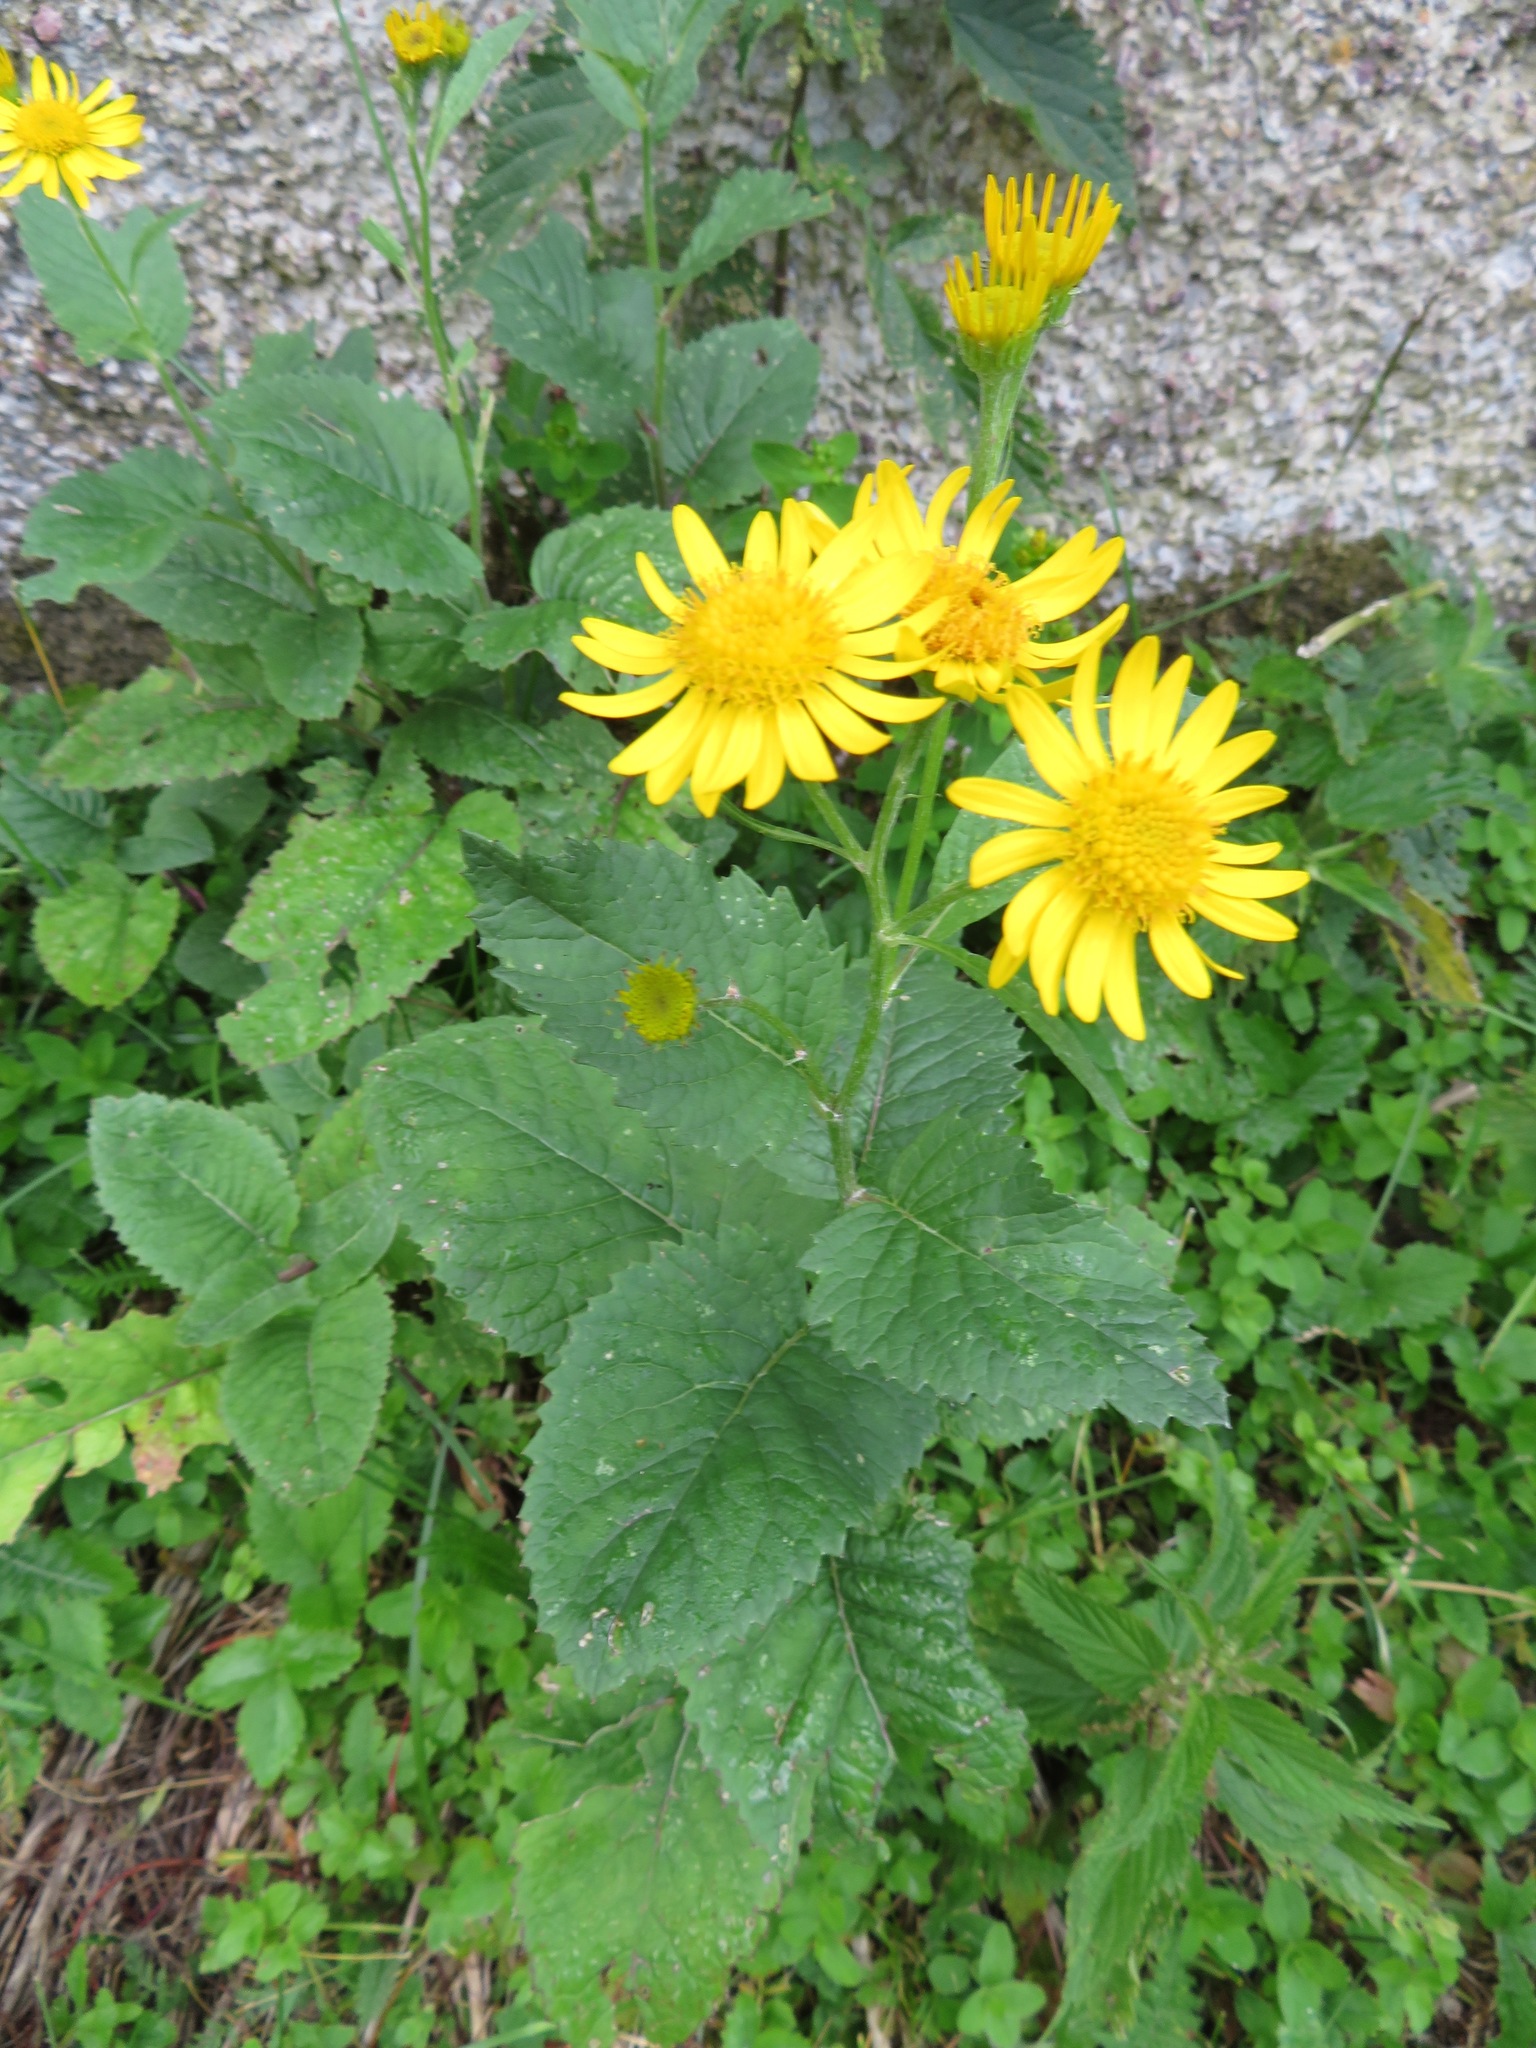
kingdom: Plantae
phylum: Tracheophyta
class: Magnoliopsida
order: Asterales
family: Asteraceae
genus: Jacobaea
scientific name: Jacobaea alpina
